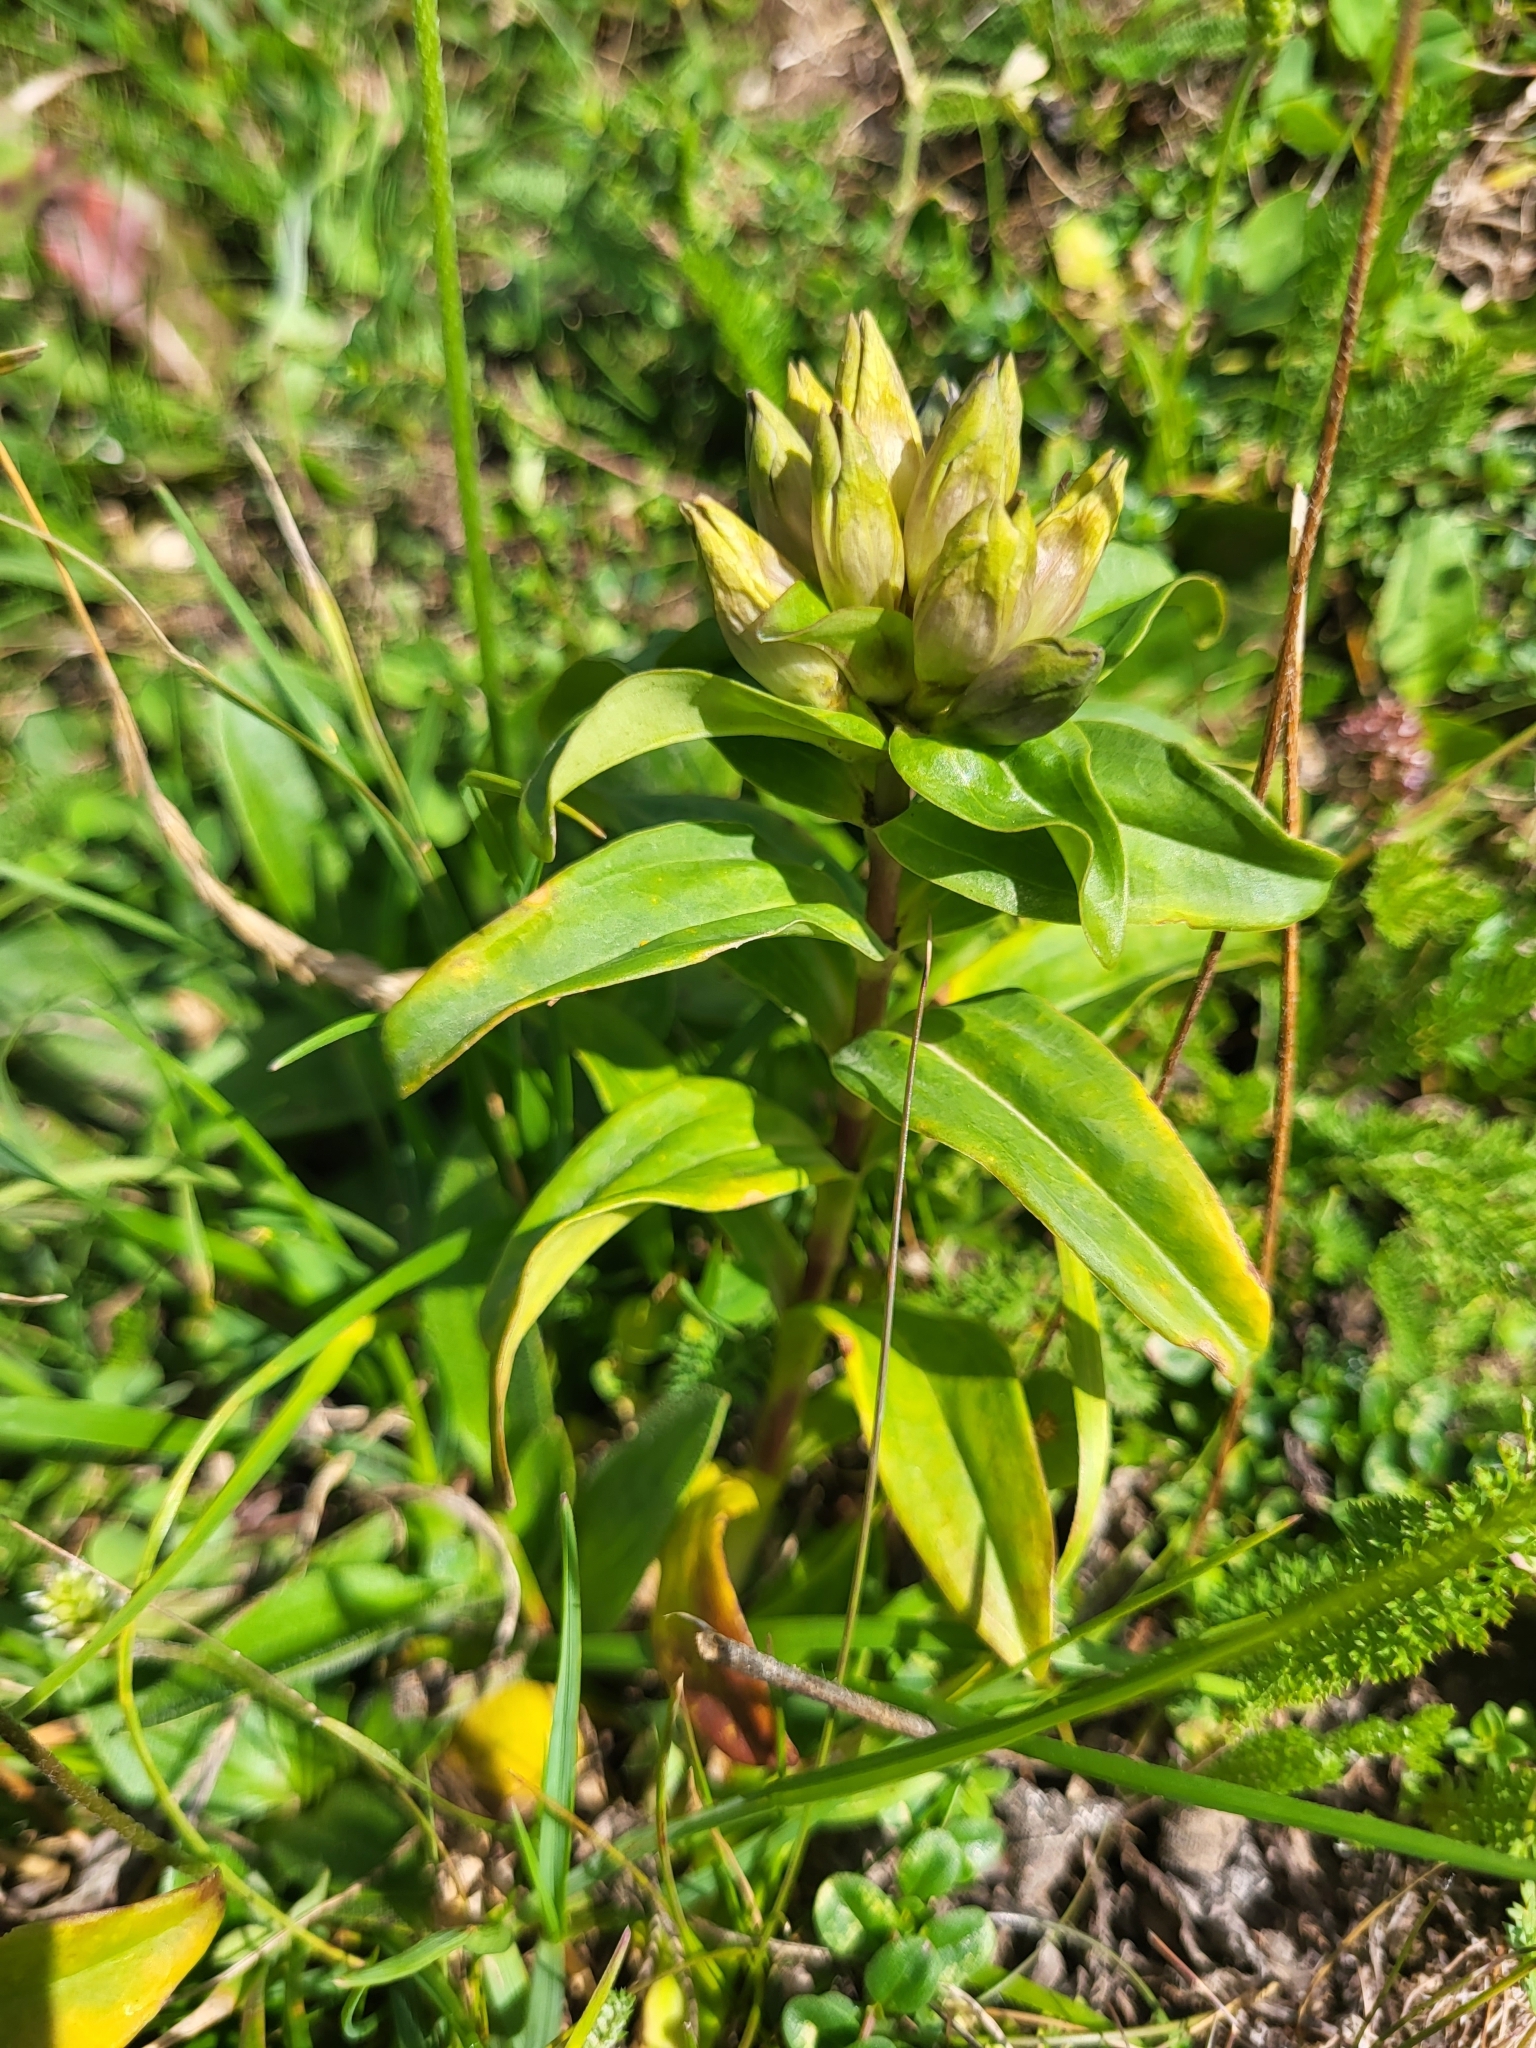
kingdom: Plantae
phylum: Tracheophyta
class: Magnoliopsida
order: Gentianales
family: Gentianaceae
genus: Gentiana
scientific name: Gentiana cruciata
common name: Cross gentian
